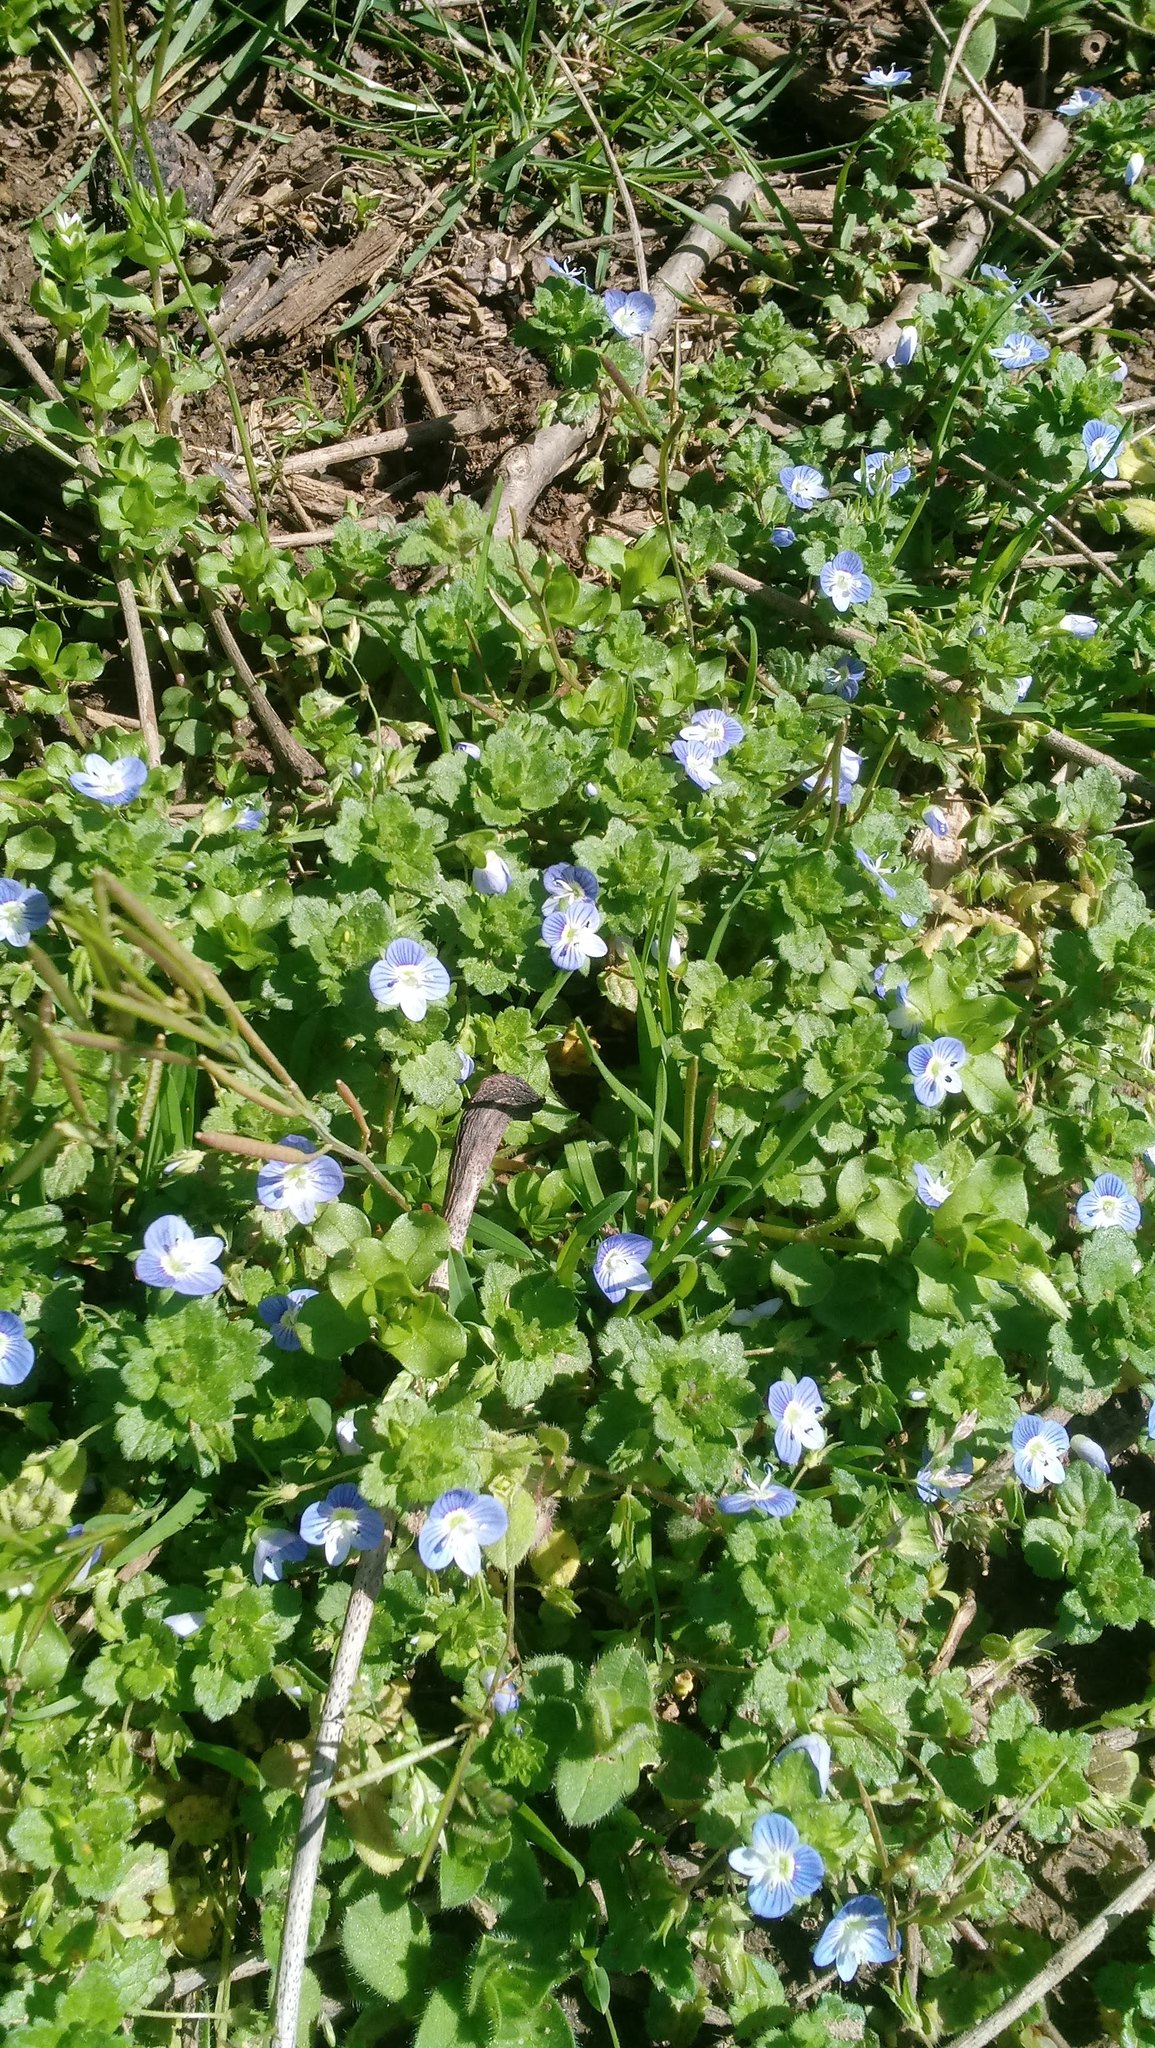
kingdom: Plantae
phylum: Tracheophyta
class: Magnoliopsida
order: Lamiales
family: Plantaginaceae
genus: Veronica
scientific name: Veronica persica
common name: Common field-speedwell
